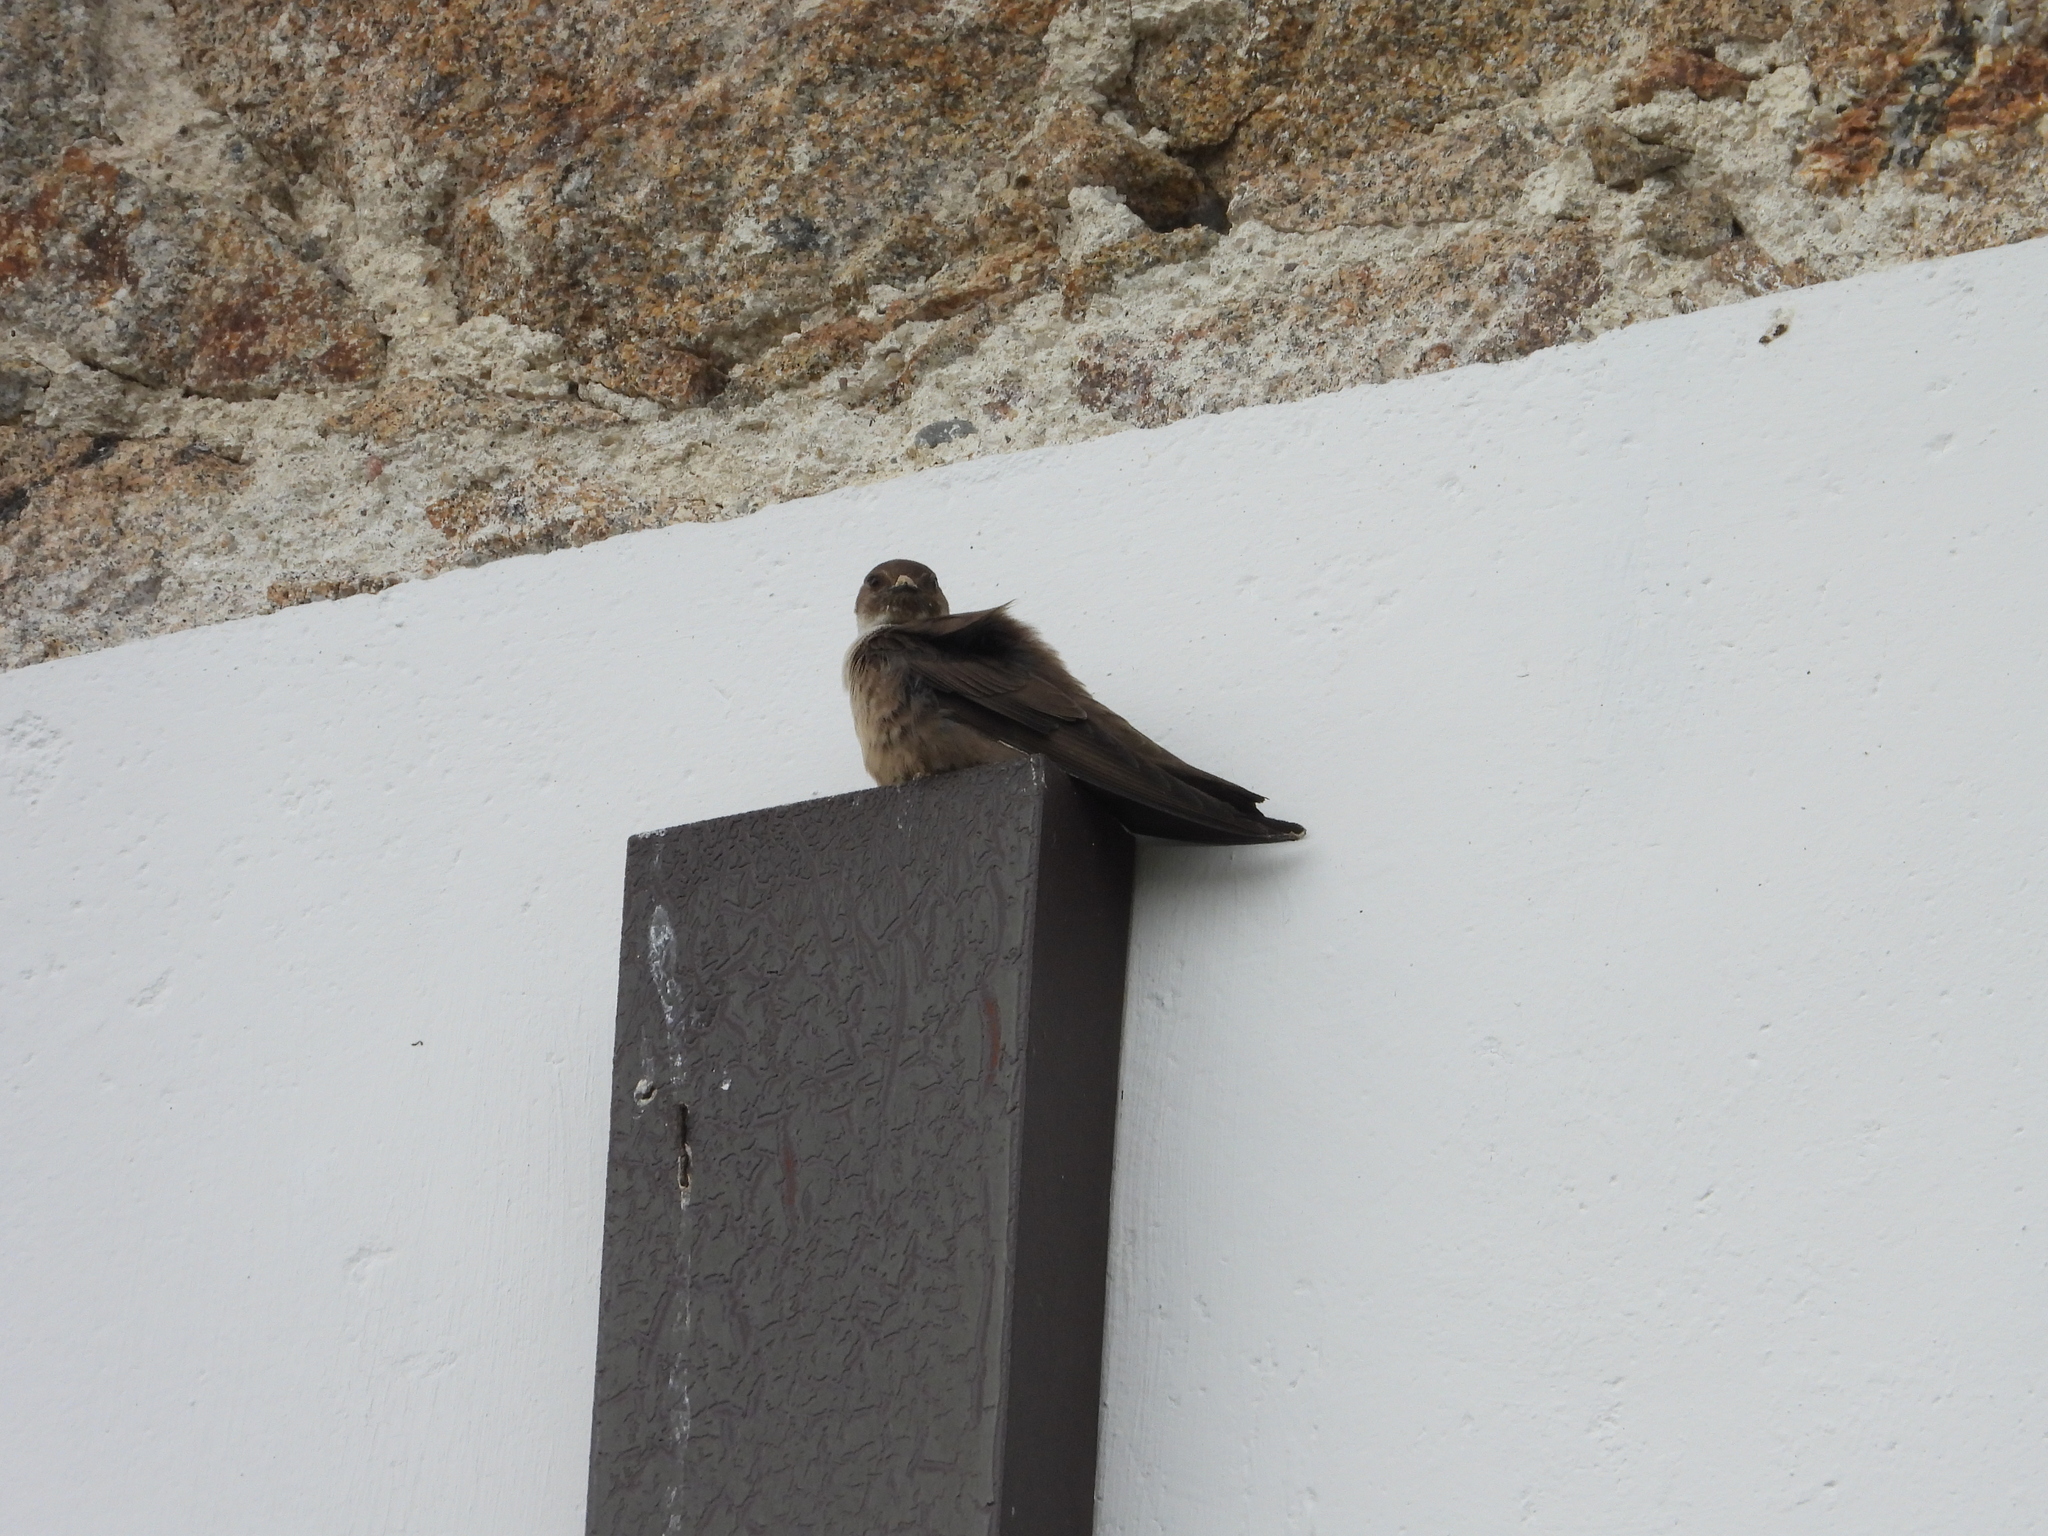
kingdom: Animalia
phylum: Chordata
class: Aves
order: Passeriformes
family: Hirundinidae
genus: Ptyonoprogne
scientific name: Ptyonoprogne rupestris
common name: Eurasian crag martin
